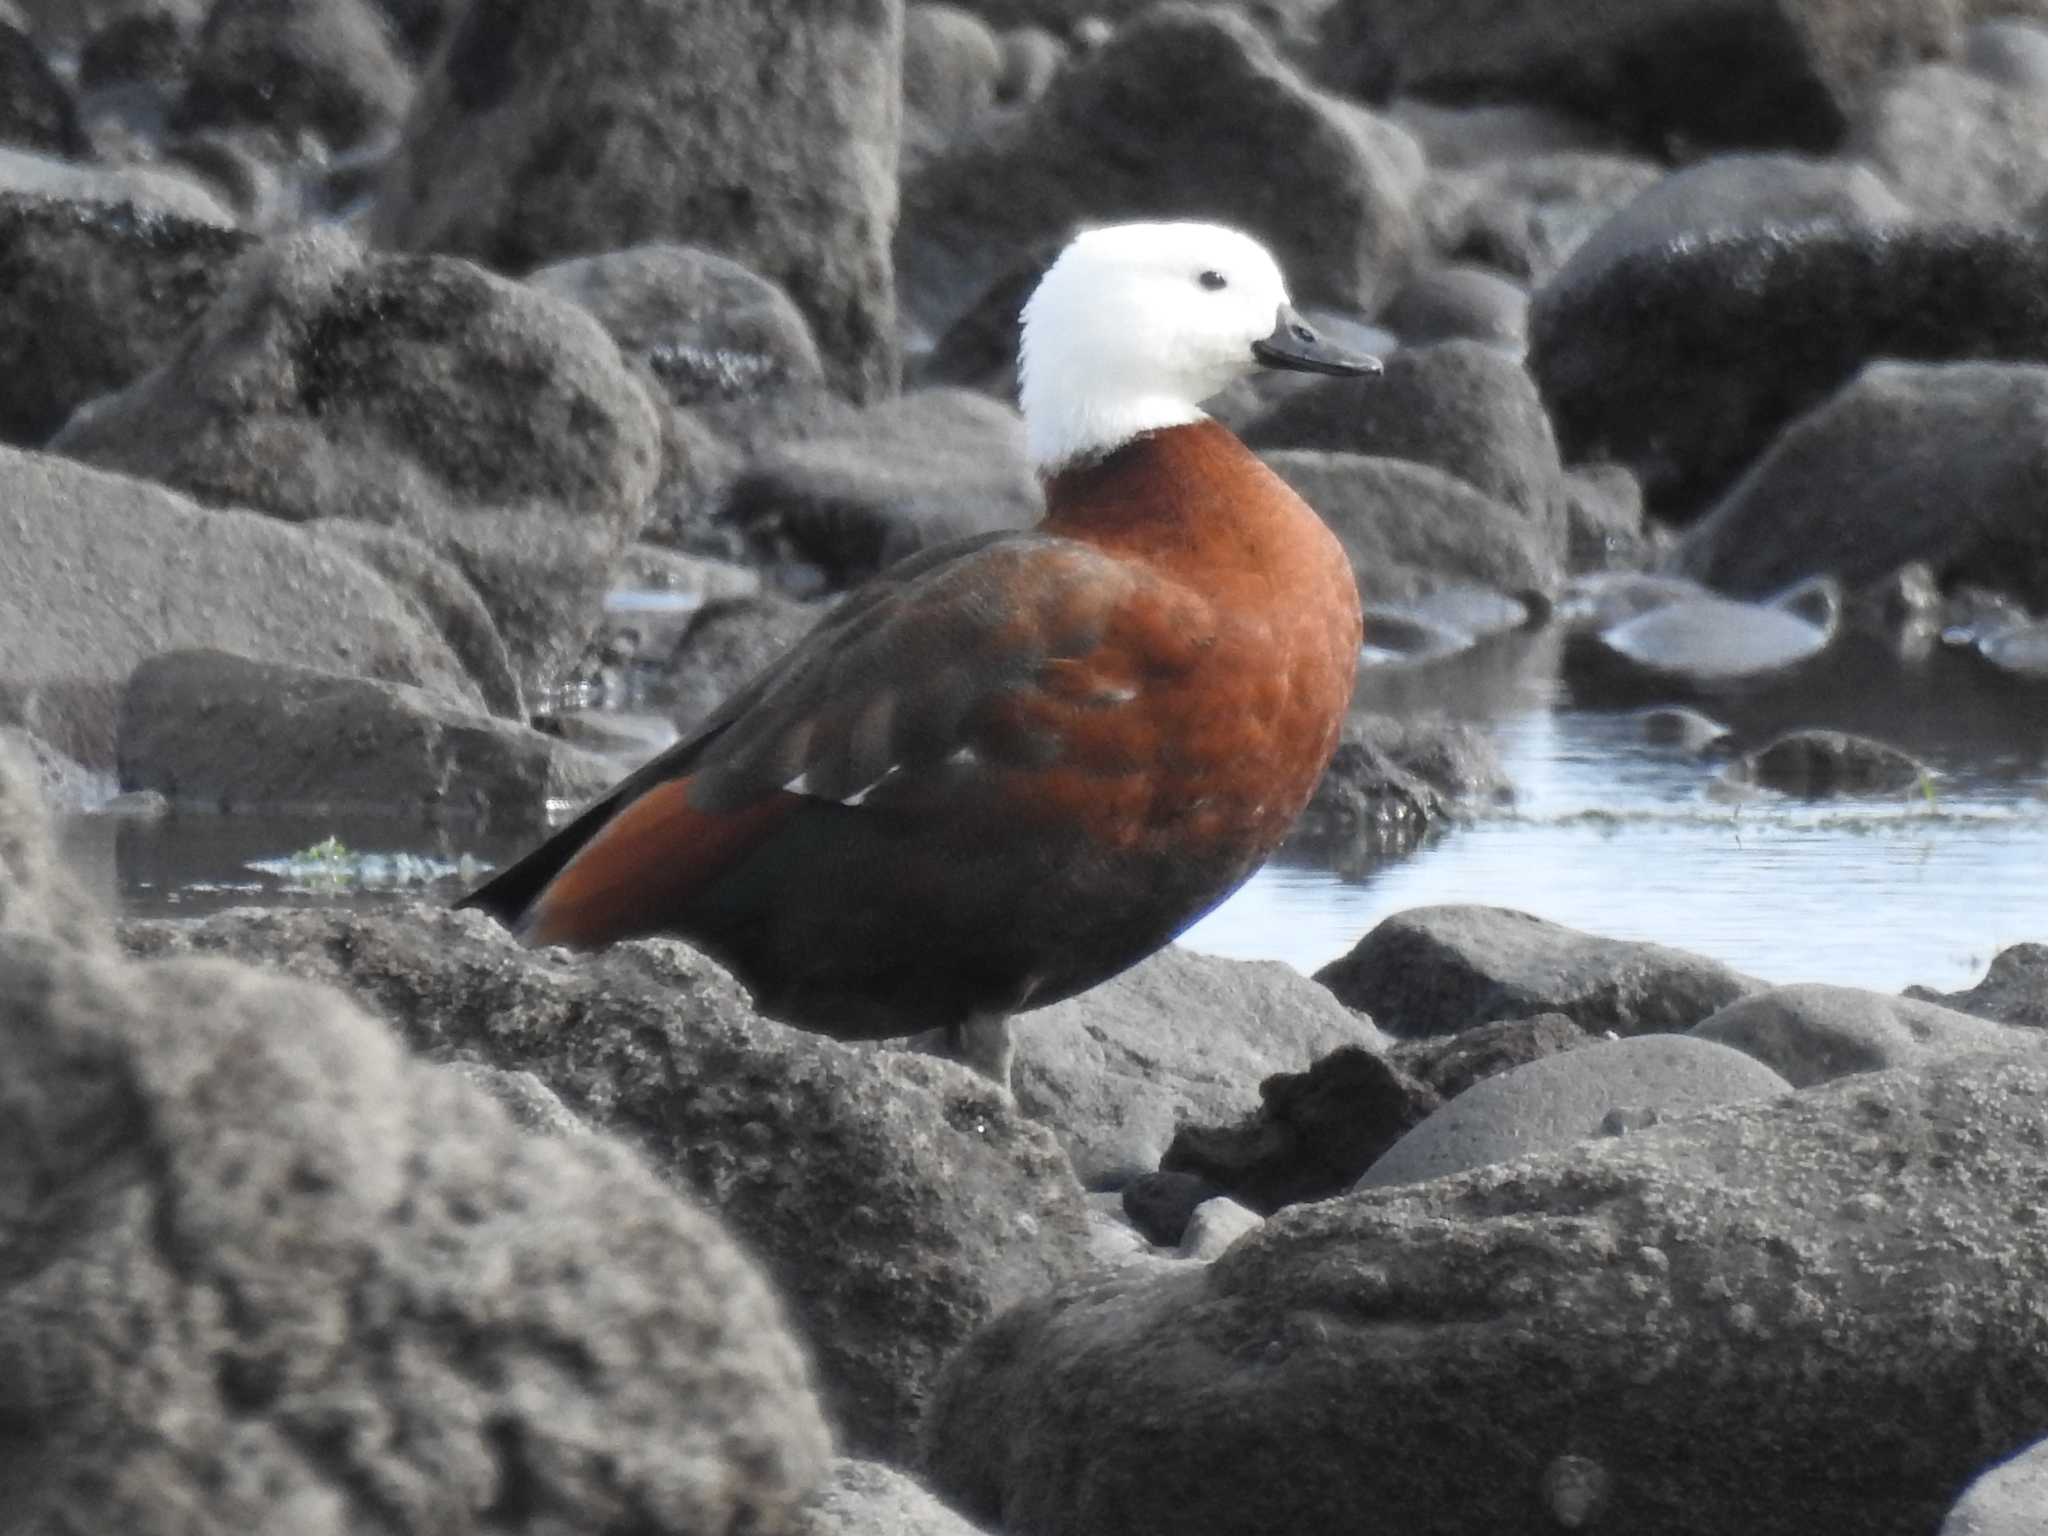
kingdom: Animalia
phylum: Chordata
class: Aves
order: Anseriformes
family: Anatidae
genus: Tadorna
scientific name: Tadorna variegata
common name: Paradise shelduck
